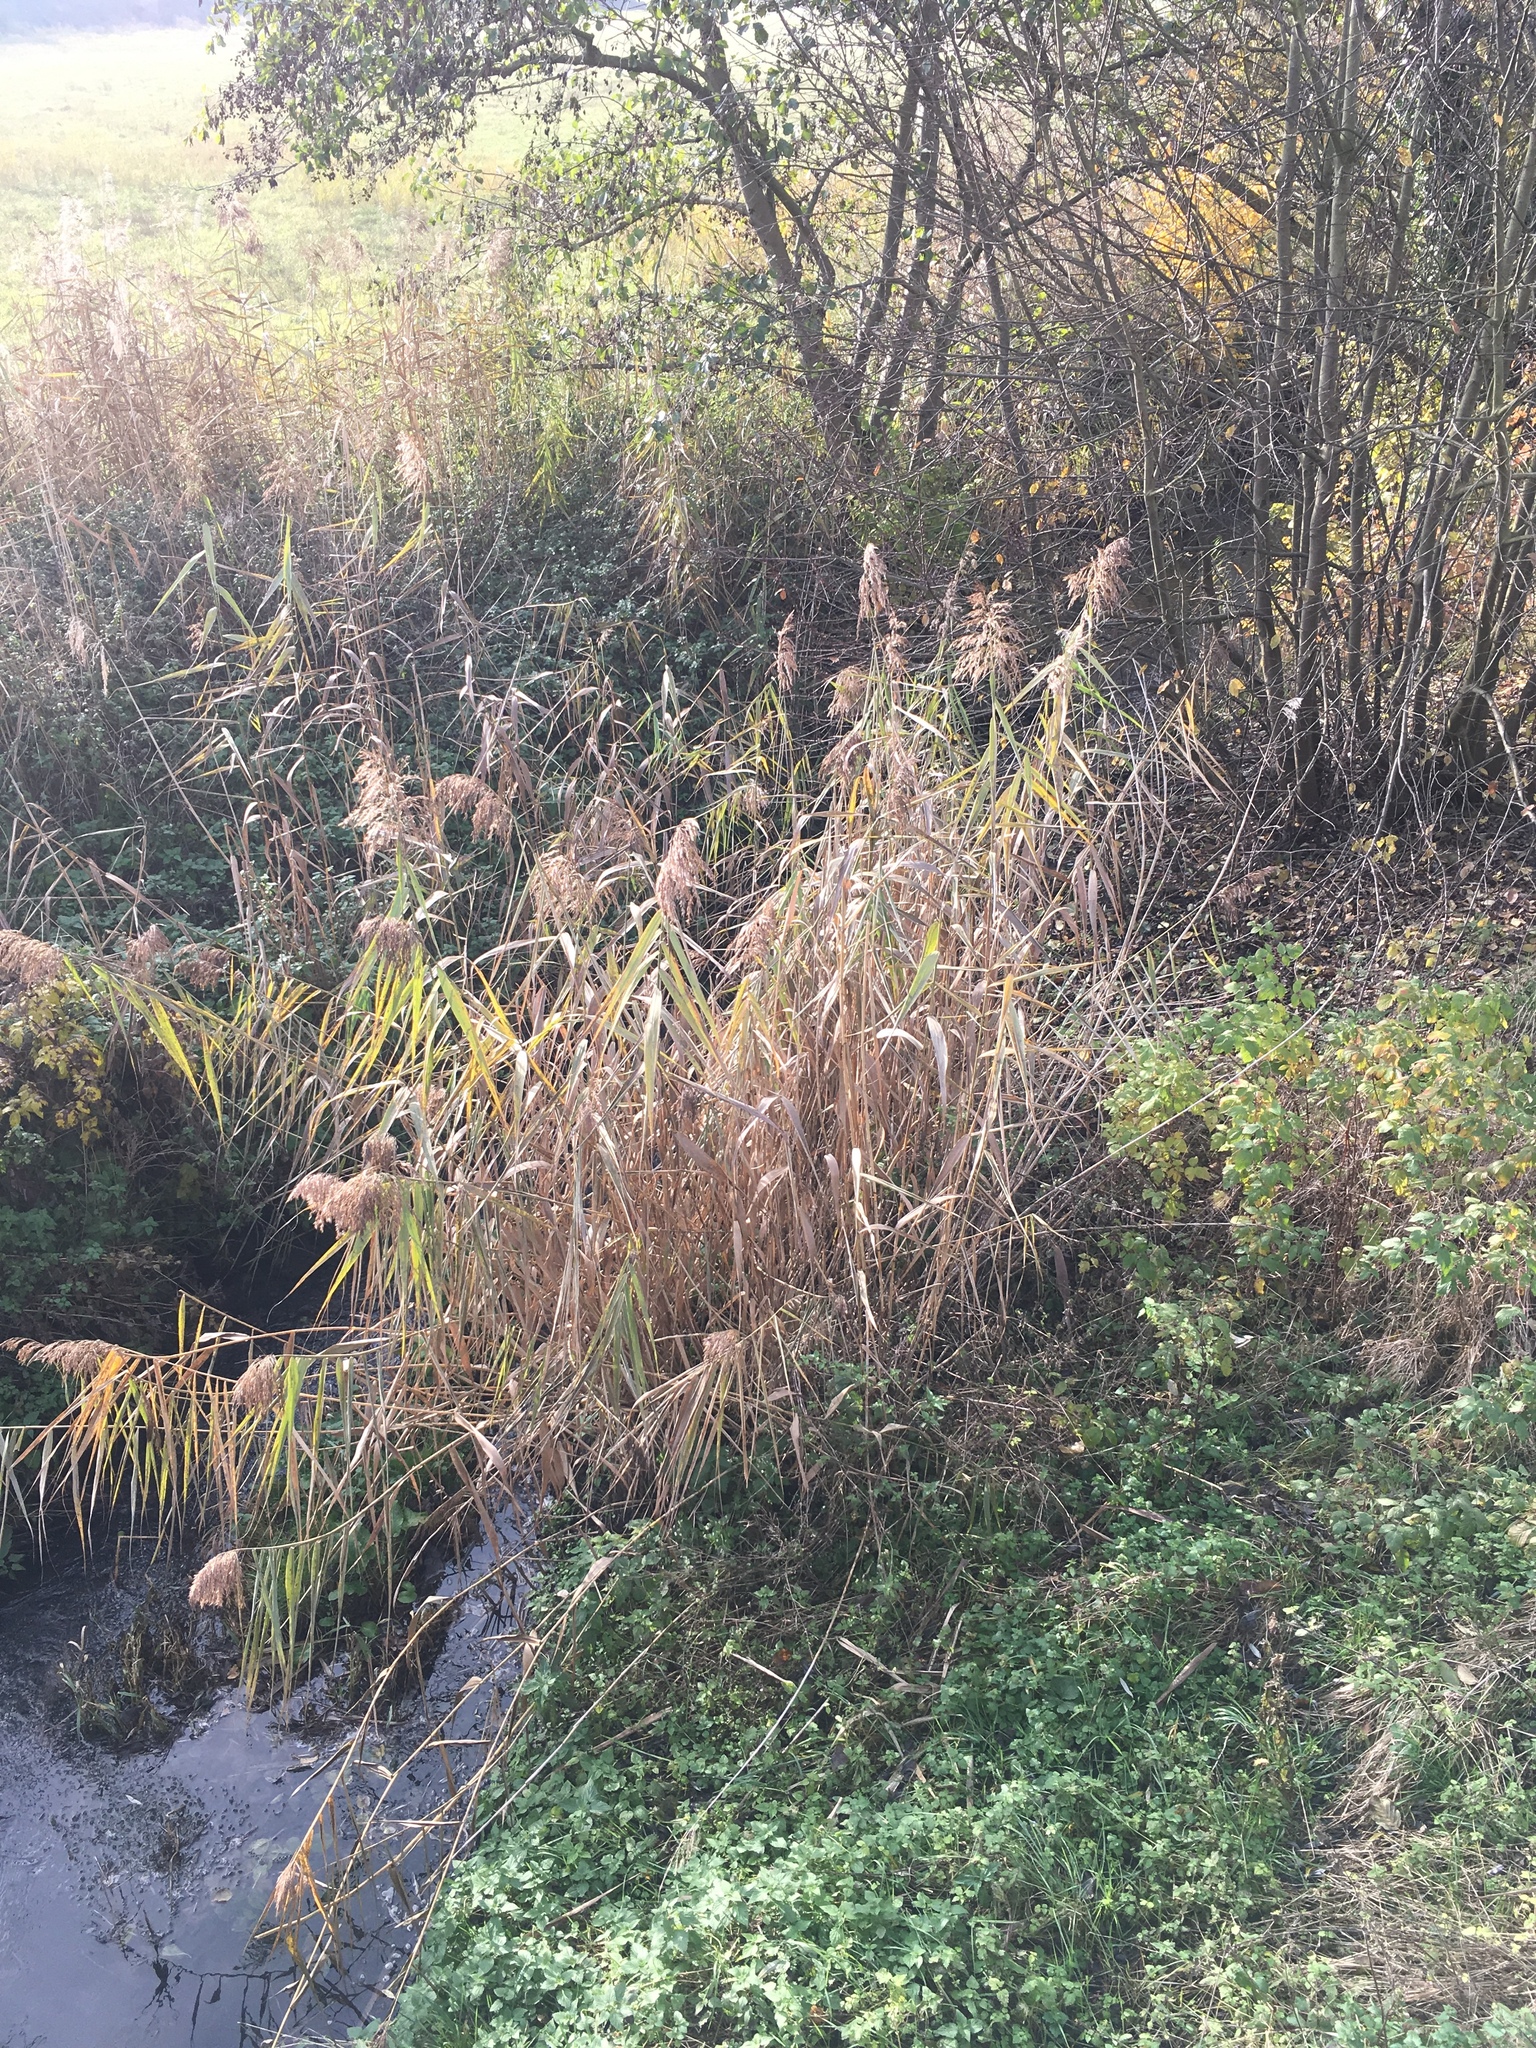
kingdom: Plantae
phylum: Tracheophyta
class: Liliopsida
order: Poales
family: Poaceae
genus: Phragmites
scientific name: Phragmites australis
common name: Common reed
